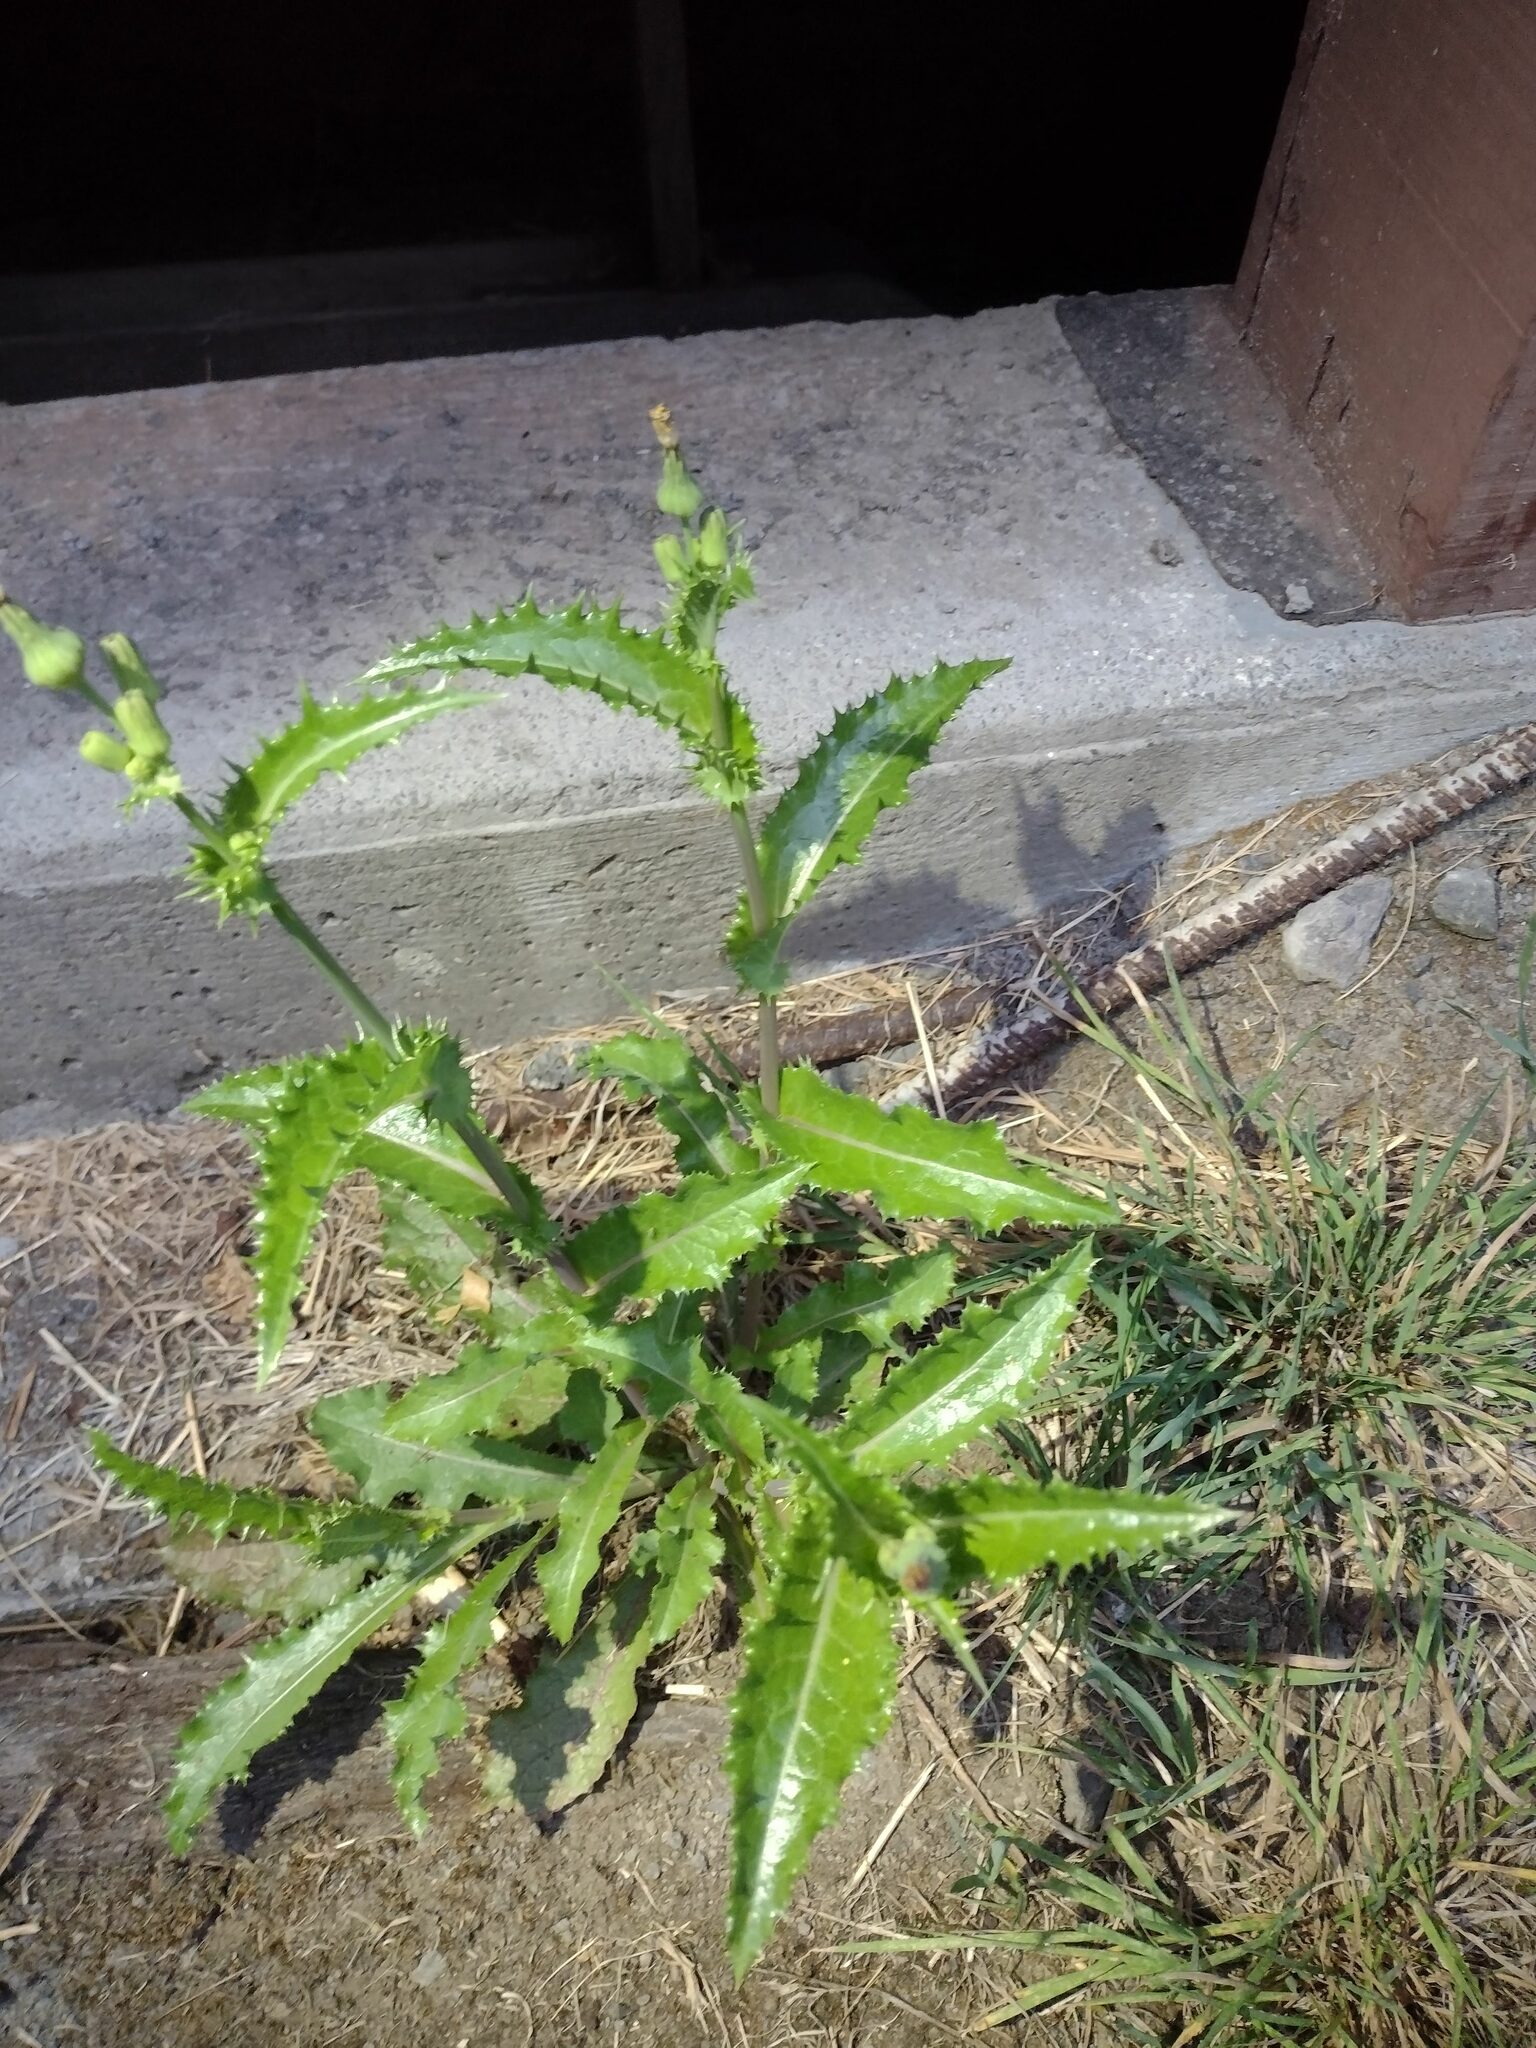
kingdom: Plantae
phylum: Tracheophyta
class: Magnoliopsida
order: Asterales
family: Asteraceae
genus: Sonchus
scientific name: Sonchus asper
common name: Prickly sow-thistle
